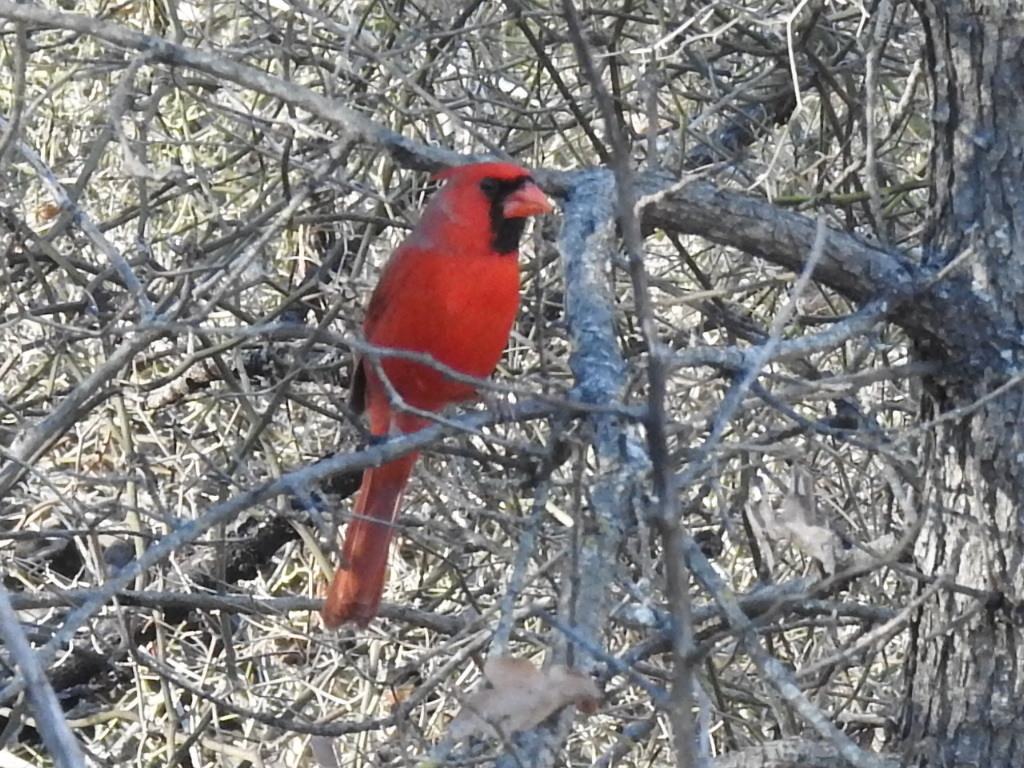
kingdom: Animalia
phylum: Chordata
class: Aves
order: Passeriformes
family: Cardinalidae
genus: Cardinalis
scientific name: Cardinalis cardinalis
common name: Northern cardinal
